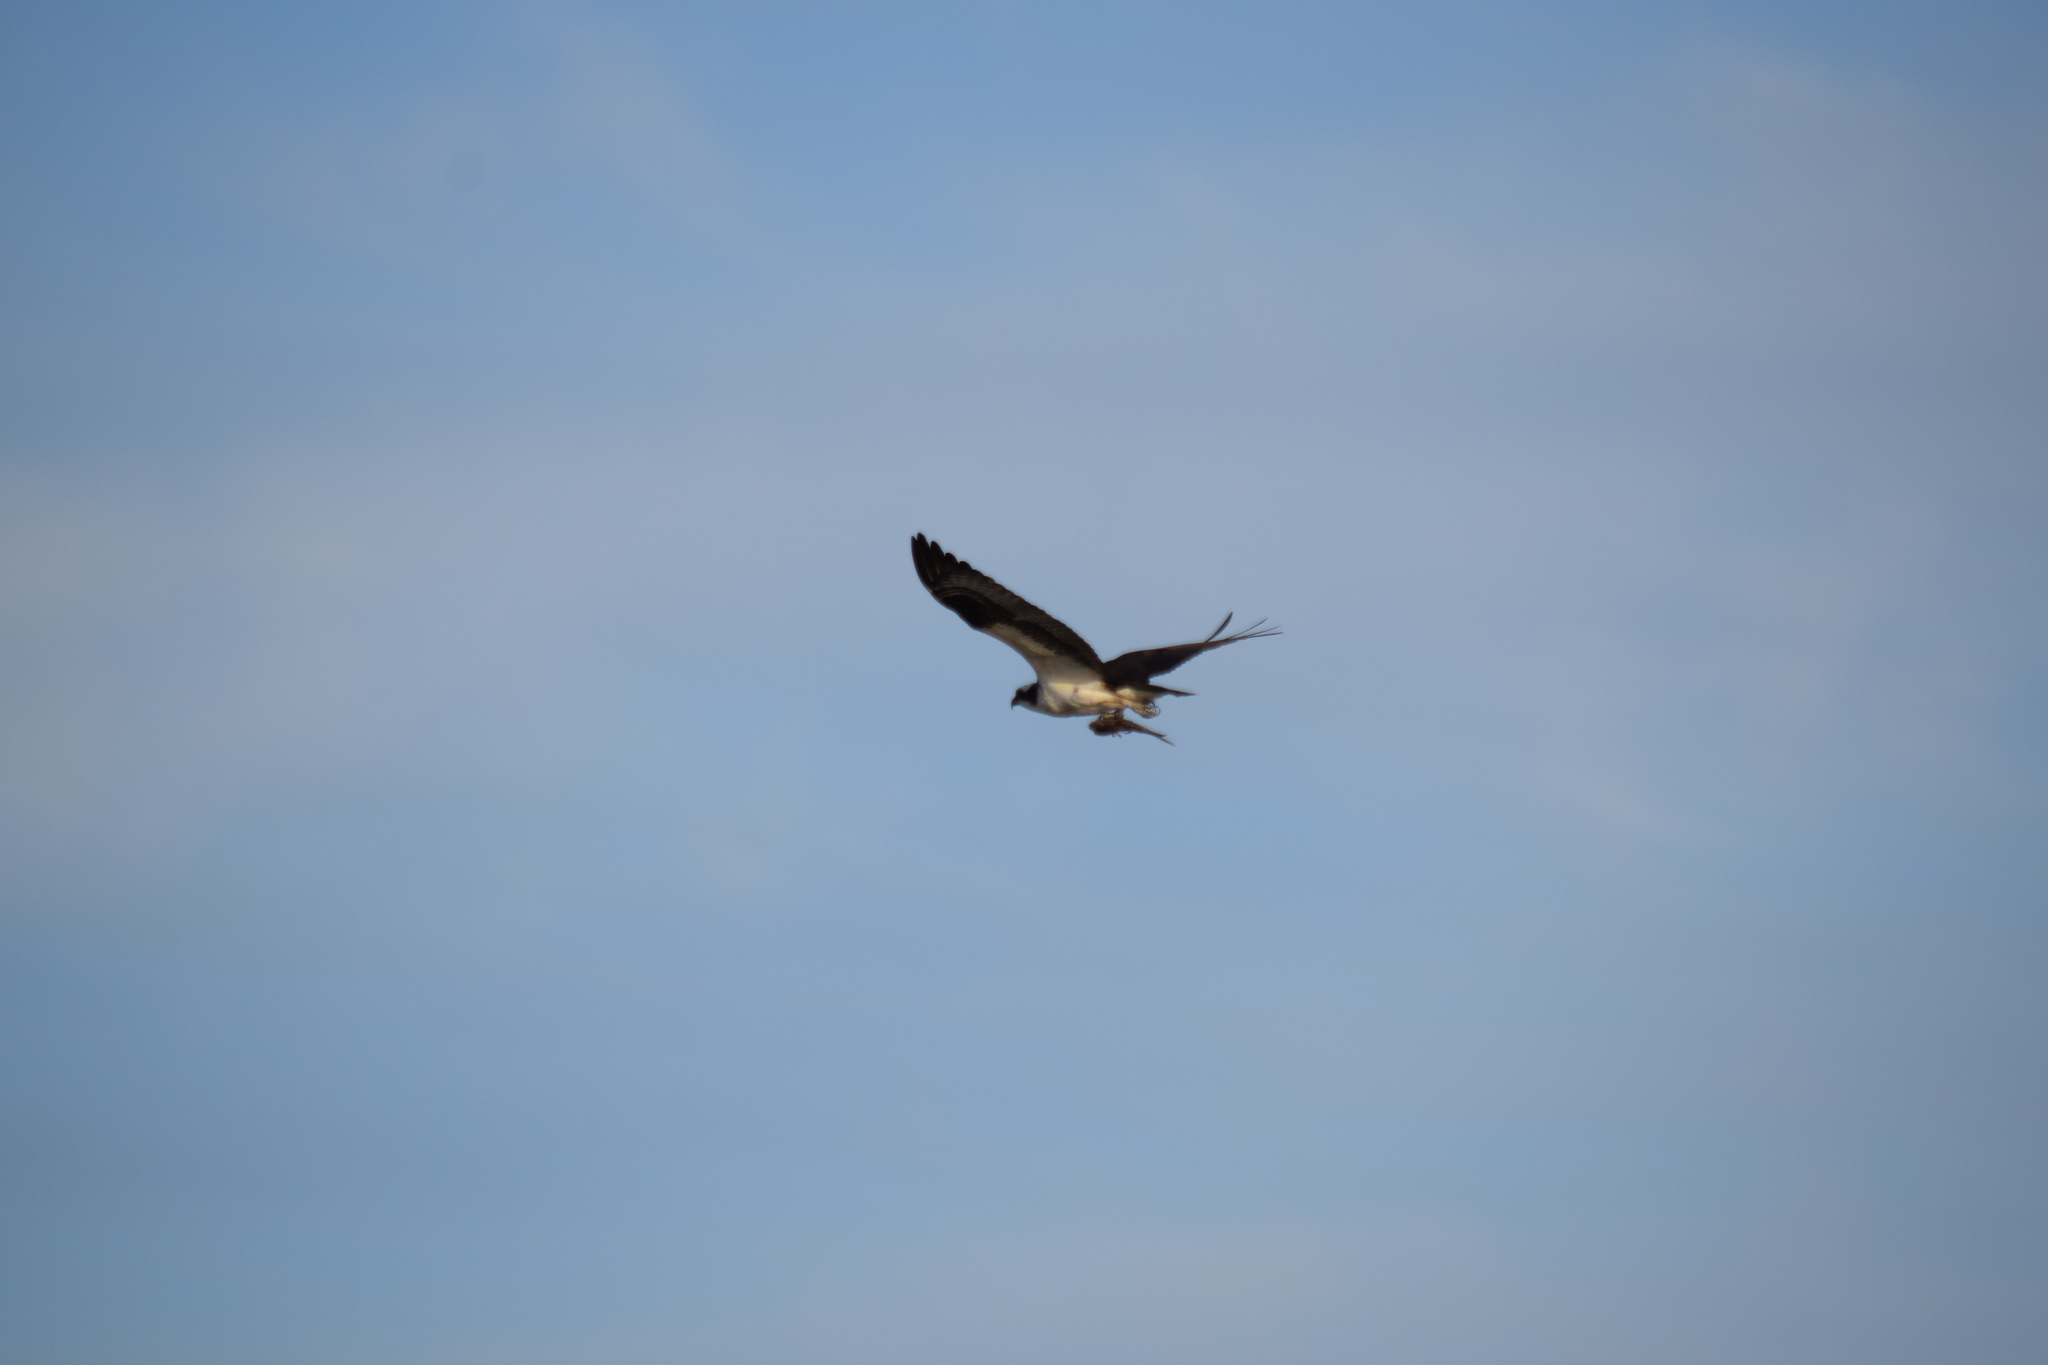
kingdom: Animalia
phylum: Chordata
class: Aves
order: Accipitriformes
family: Pandionidae
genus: Pandion
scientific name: Pandion haliaetus
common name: Osprey
